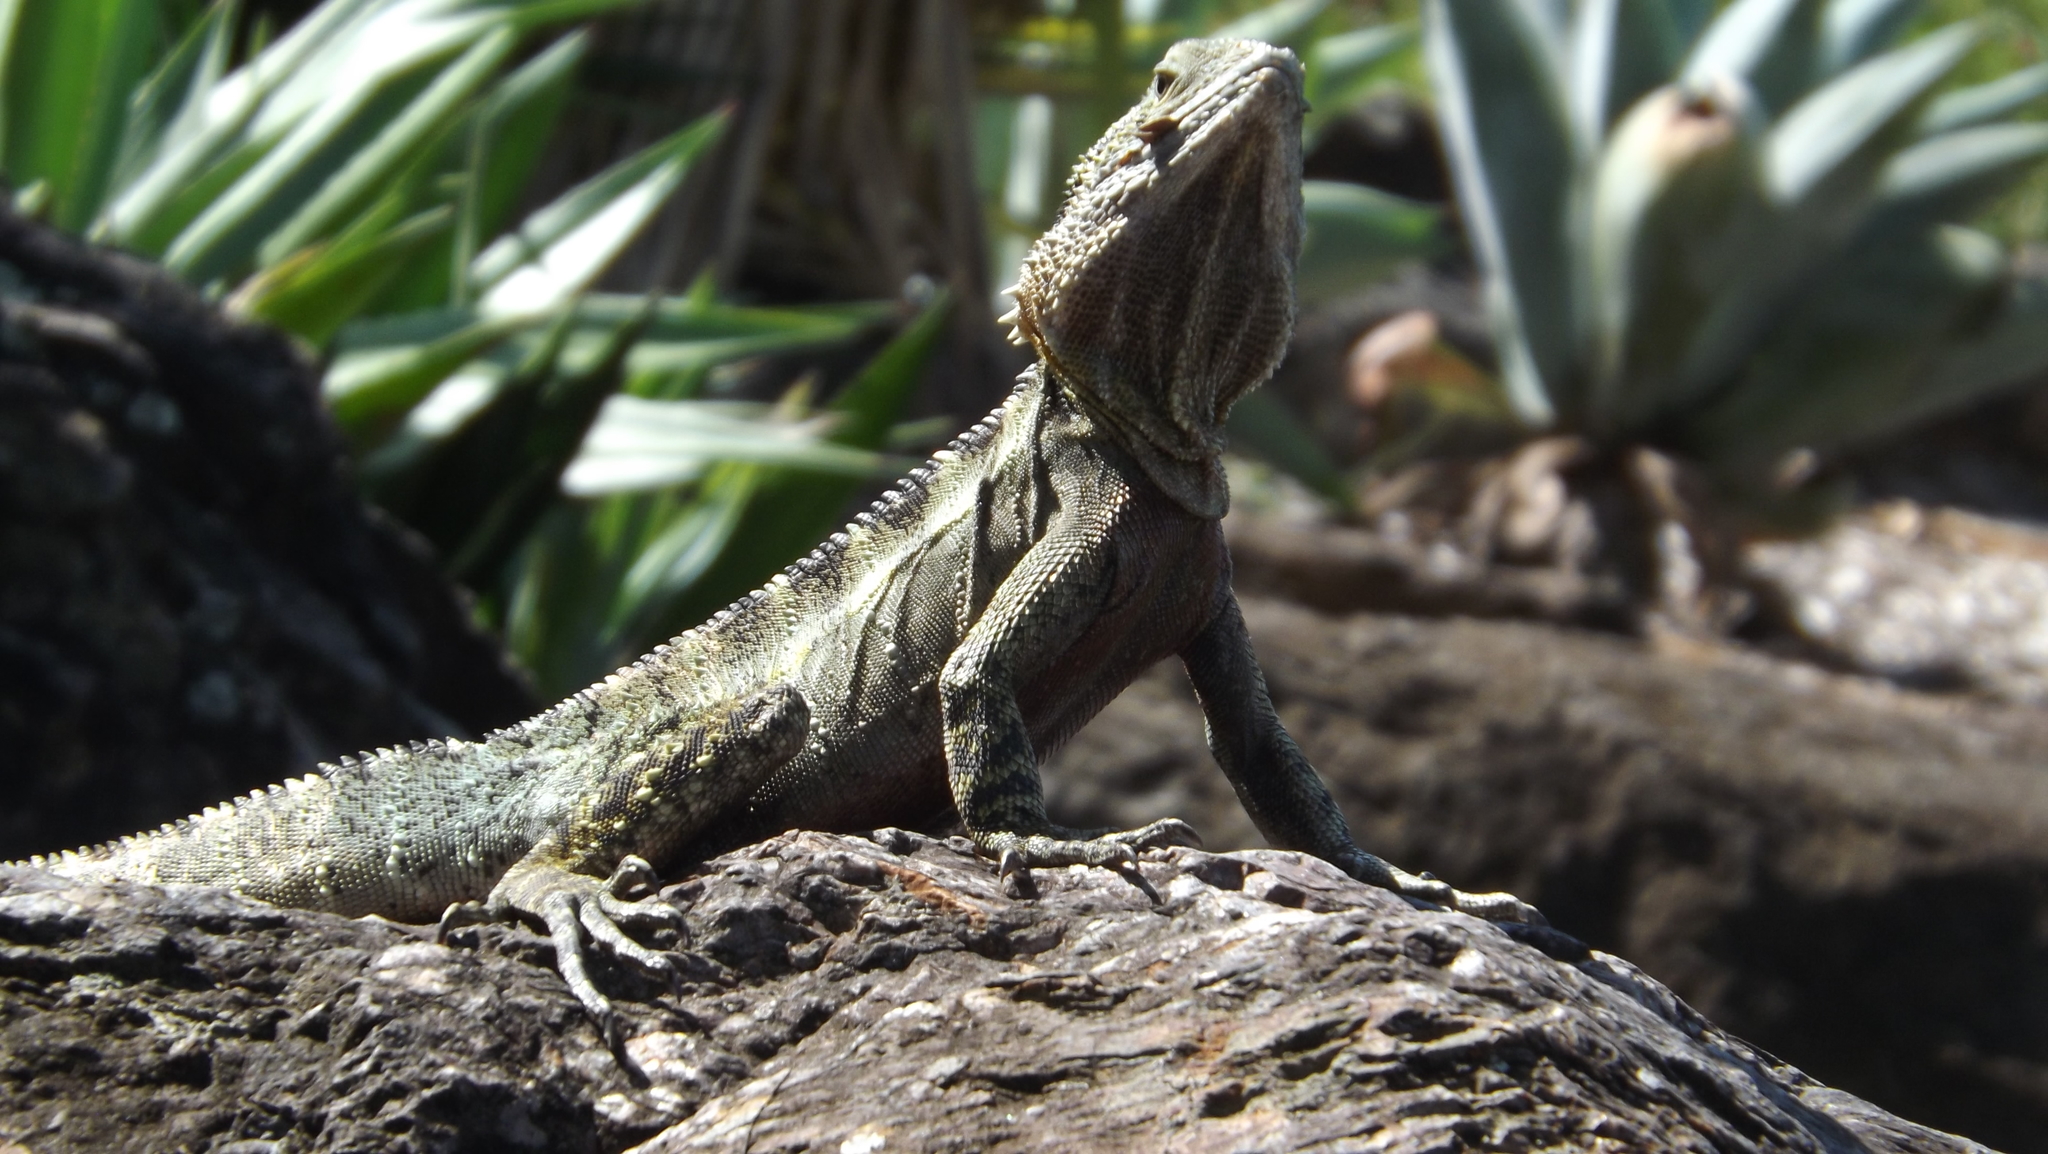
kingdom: Animalia
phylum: Chordata
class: Squamata
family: Agamidae
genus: Intellagama
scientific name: Intellagama lesueurii
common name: Eastern water dragon
